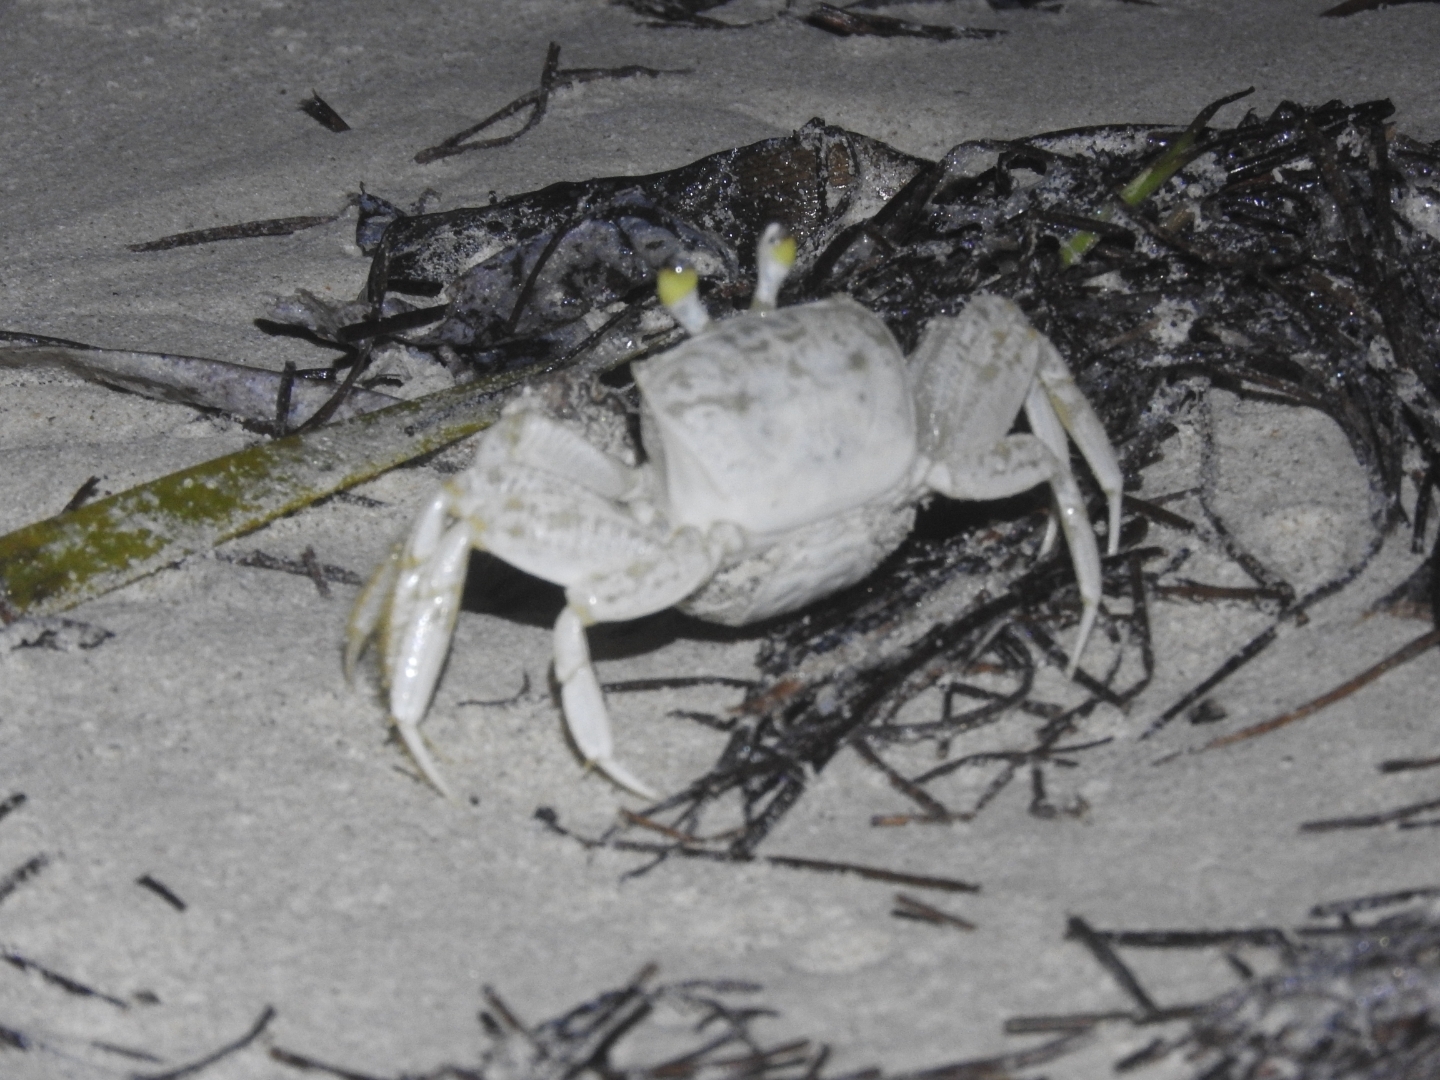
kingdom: Animalia
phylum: Arthropoda
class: Malacostraca
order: Decapoda
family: Ocypodidae
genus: Ocypode
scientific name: Ocypode quadrata
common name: Ghost crab
